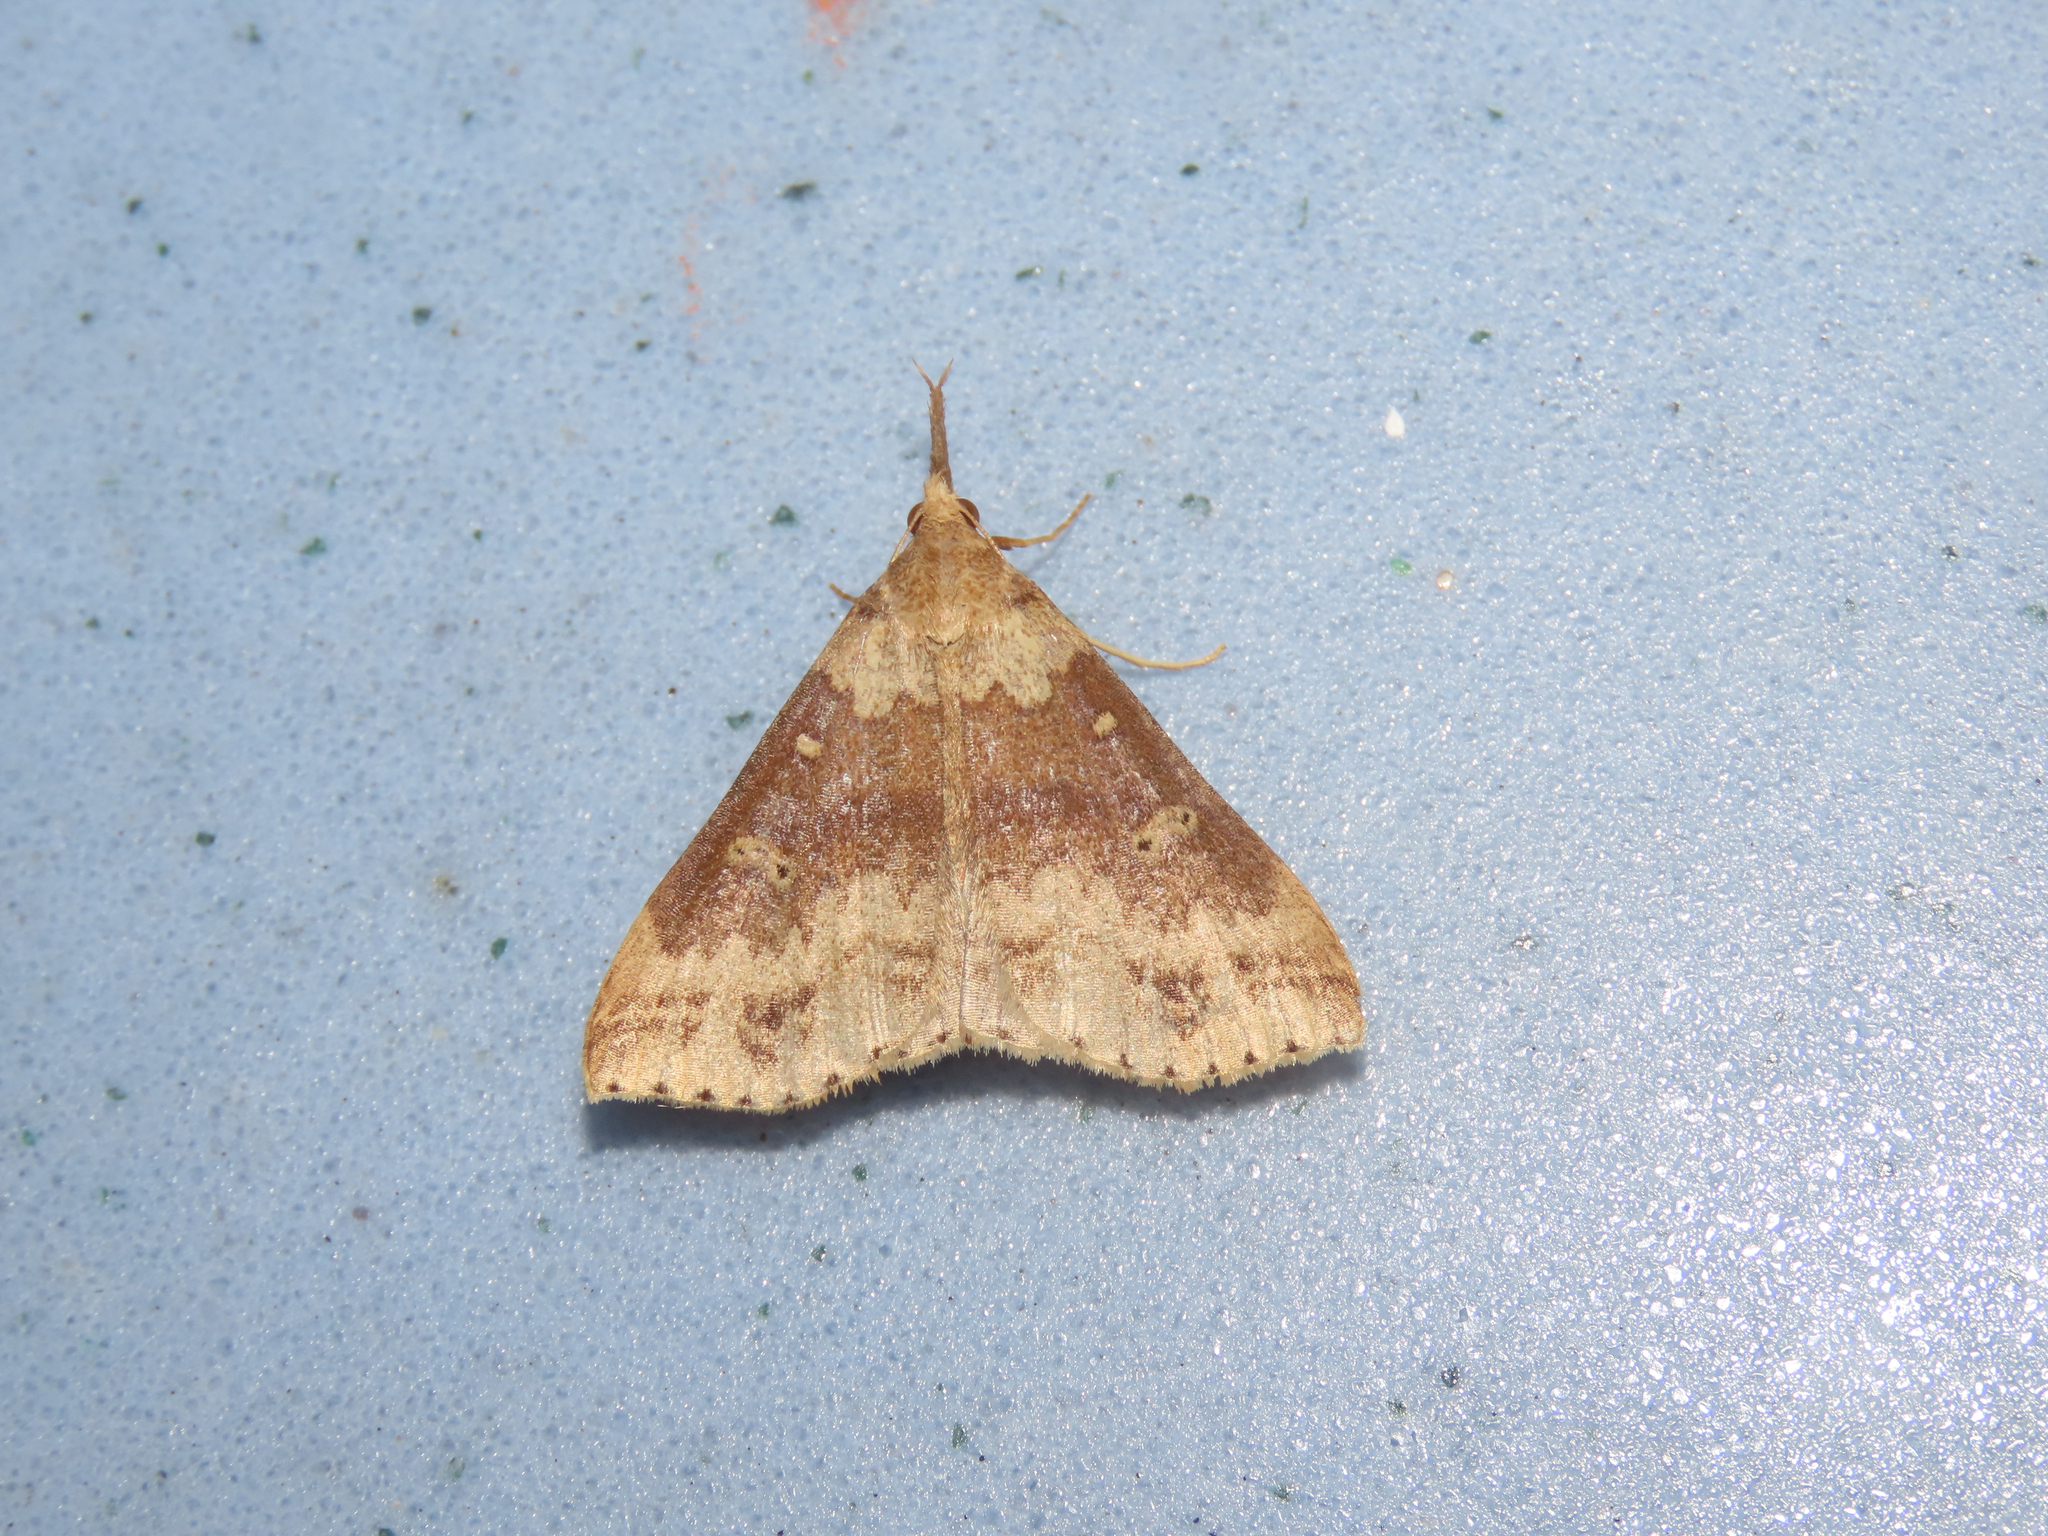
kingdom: Animalia
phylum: Arthropoda
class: Insecta
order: Lepidoptera
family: Erebidae
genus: Renia
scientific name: Renia discoloralis
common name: Discolored renia moth
